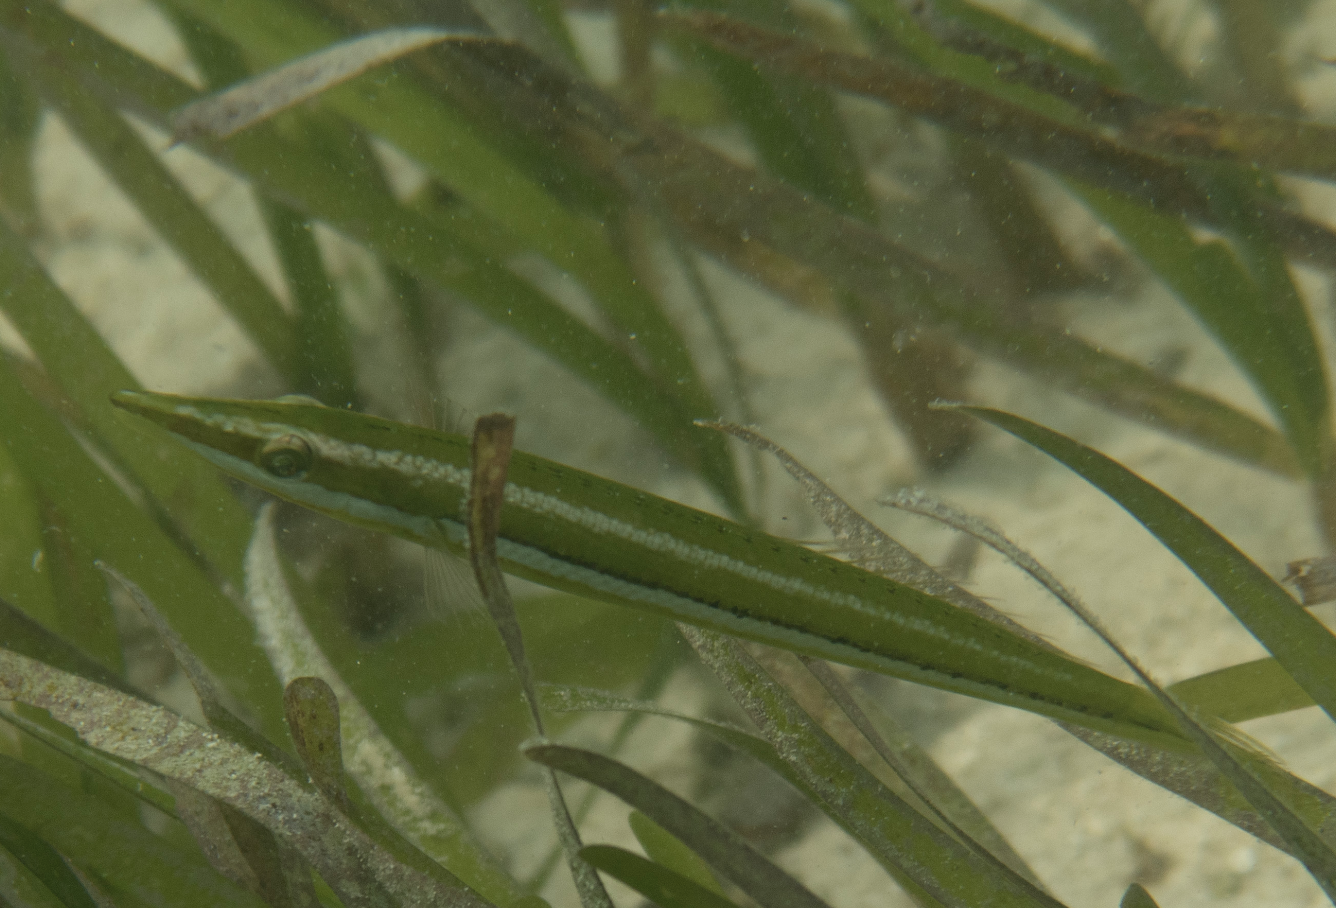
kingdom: Animalia
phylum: Chordata
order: Perciformes
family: Labridae
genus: Cheilio
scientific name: Cheilio inermis
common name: Cigar wrasse
